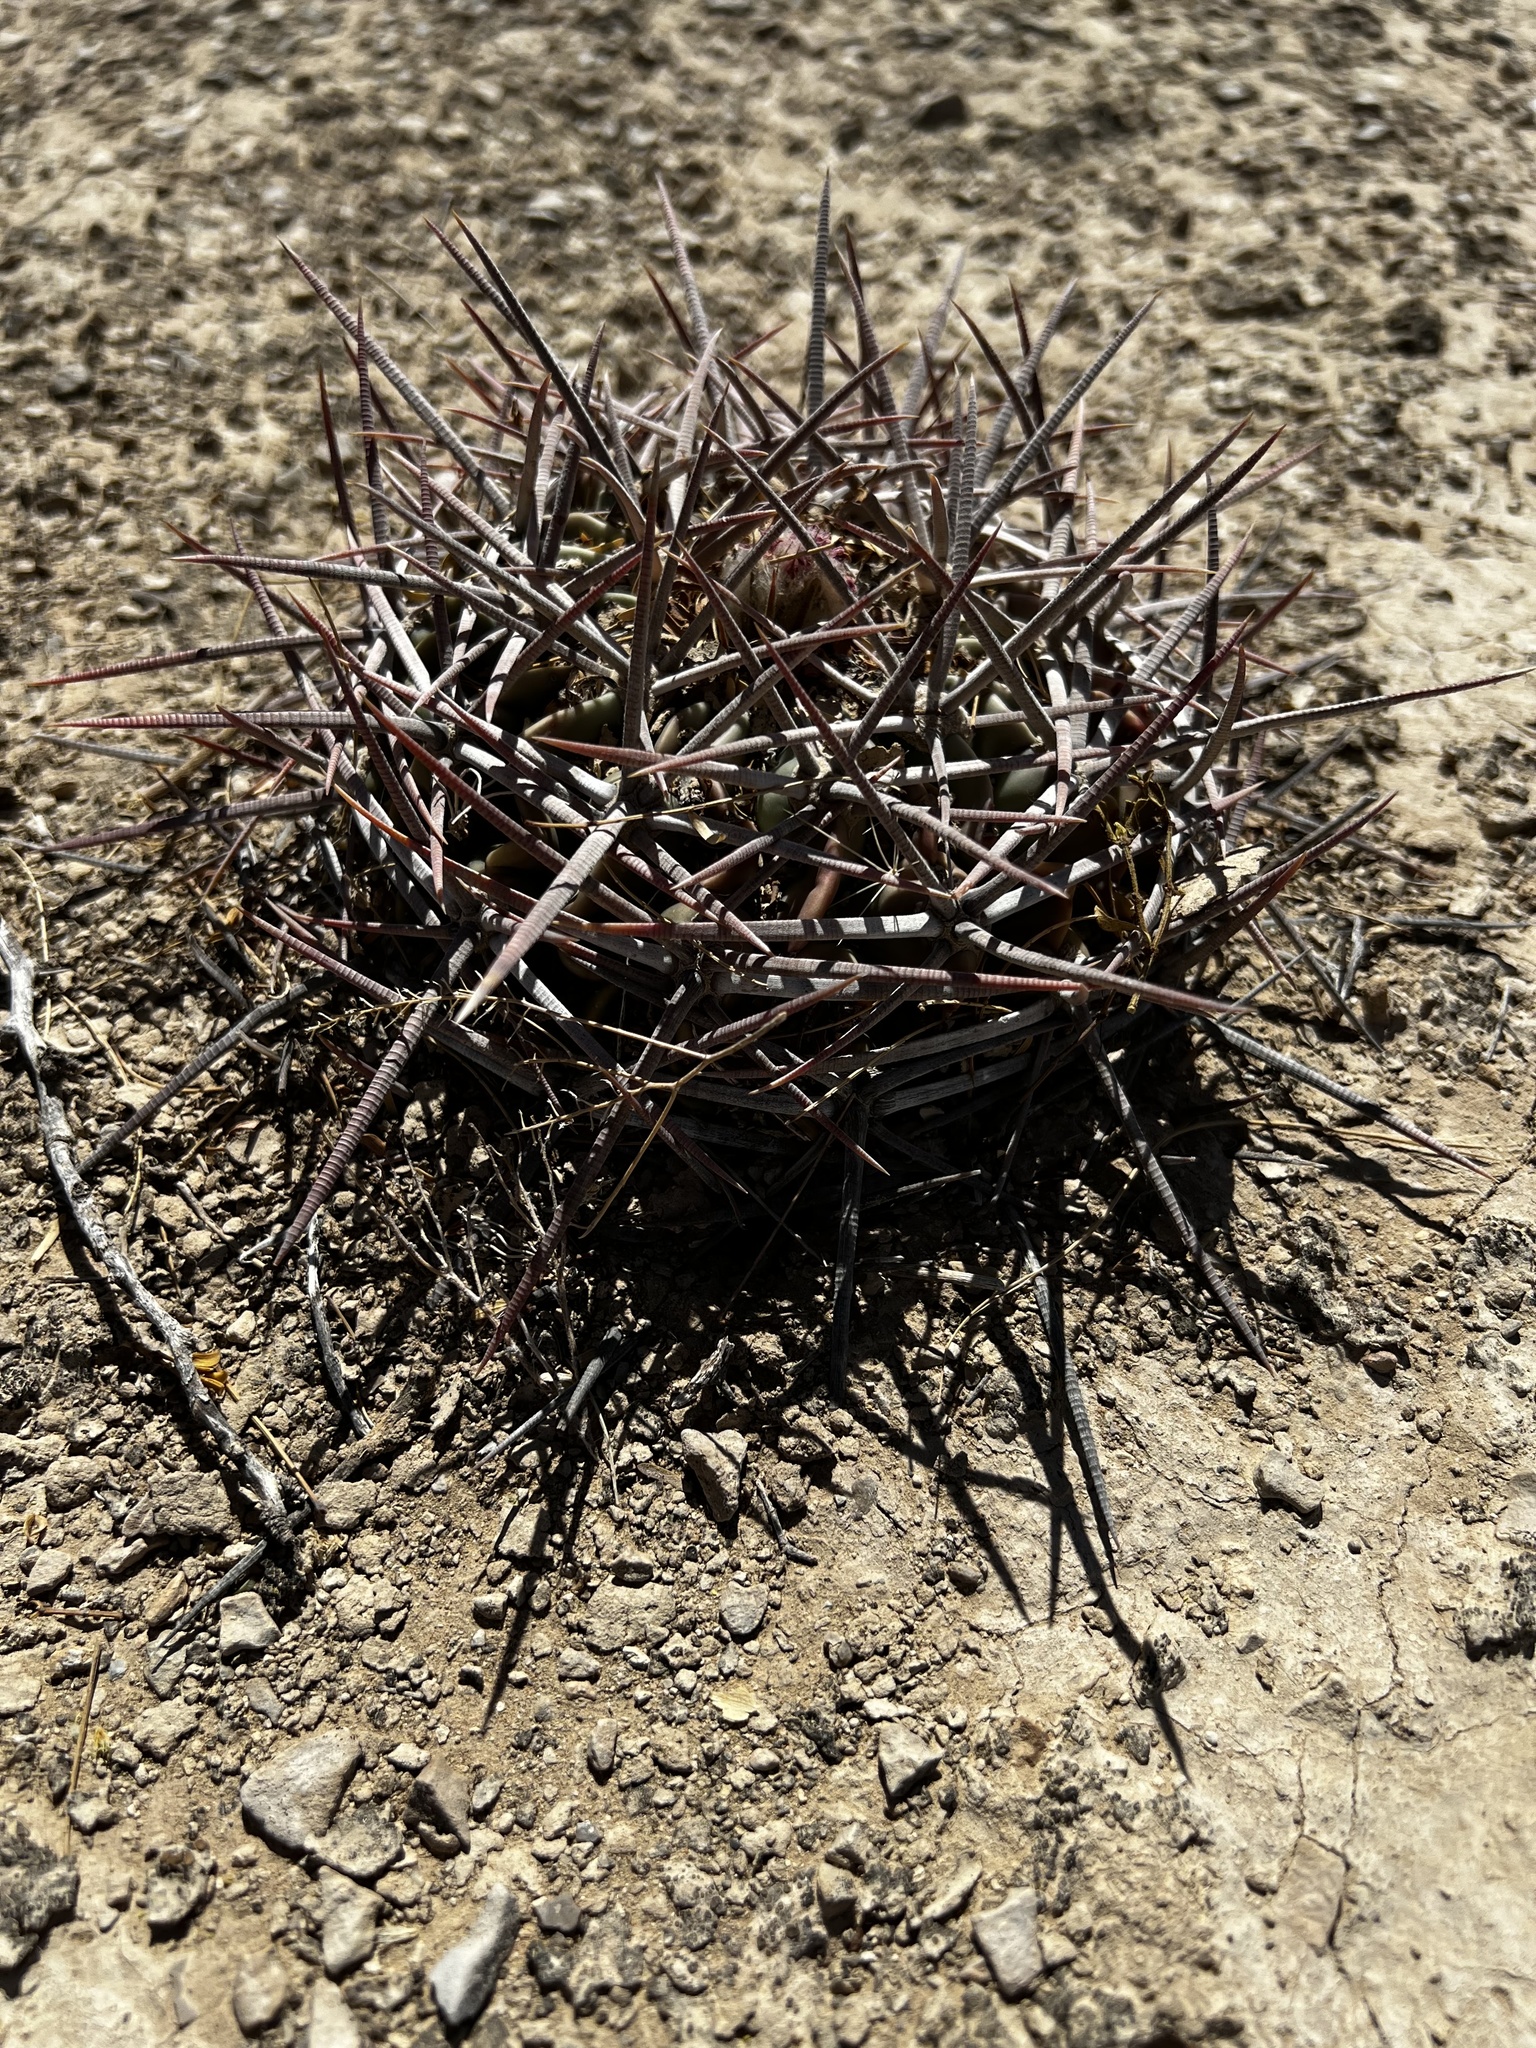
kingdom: Plantae
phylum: Tracheophyta
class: Magnoliopsida
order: Caryophyllales
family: Cactaceae
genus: Echinocactus
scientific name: Echinocactus texensis
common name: Devil's pincushion
